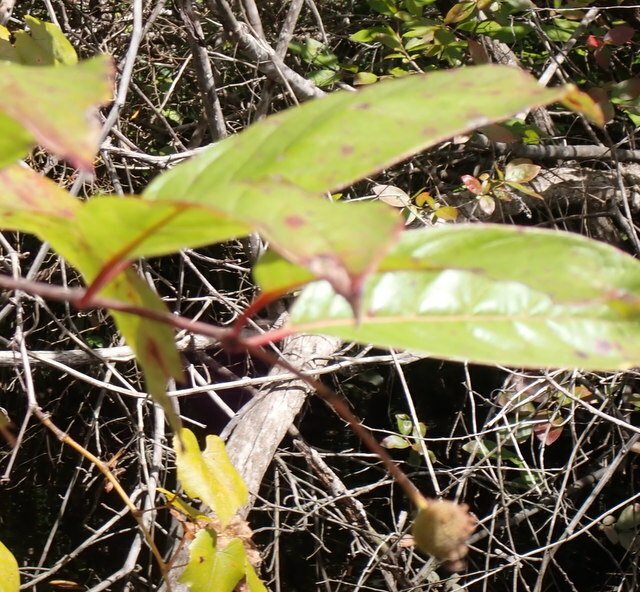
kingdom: Plantae
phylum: Tracheophyta
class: Magnoliopsida
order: Gentianales
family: Rubiaceae
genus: Cephalanthus
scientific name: Cephalanthus occidentalis
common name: Button-willow
